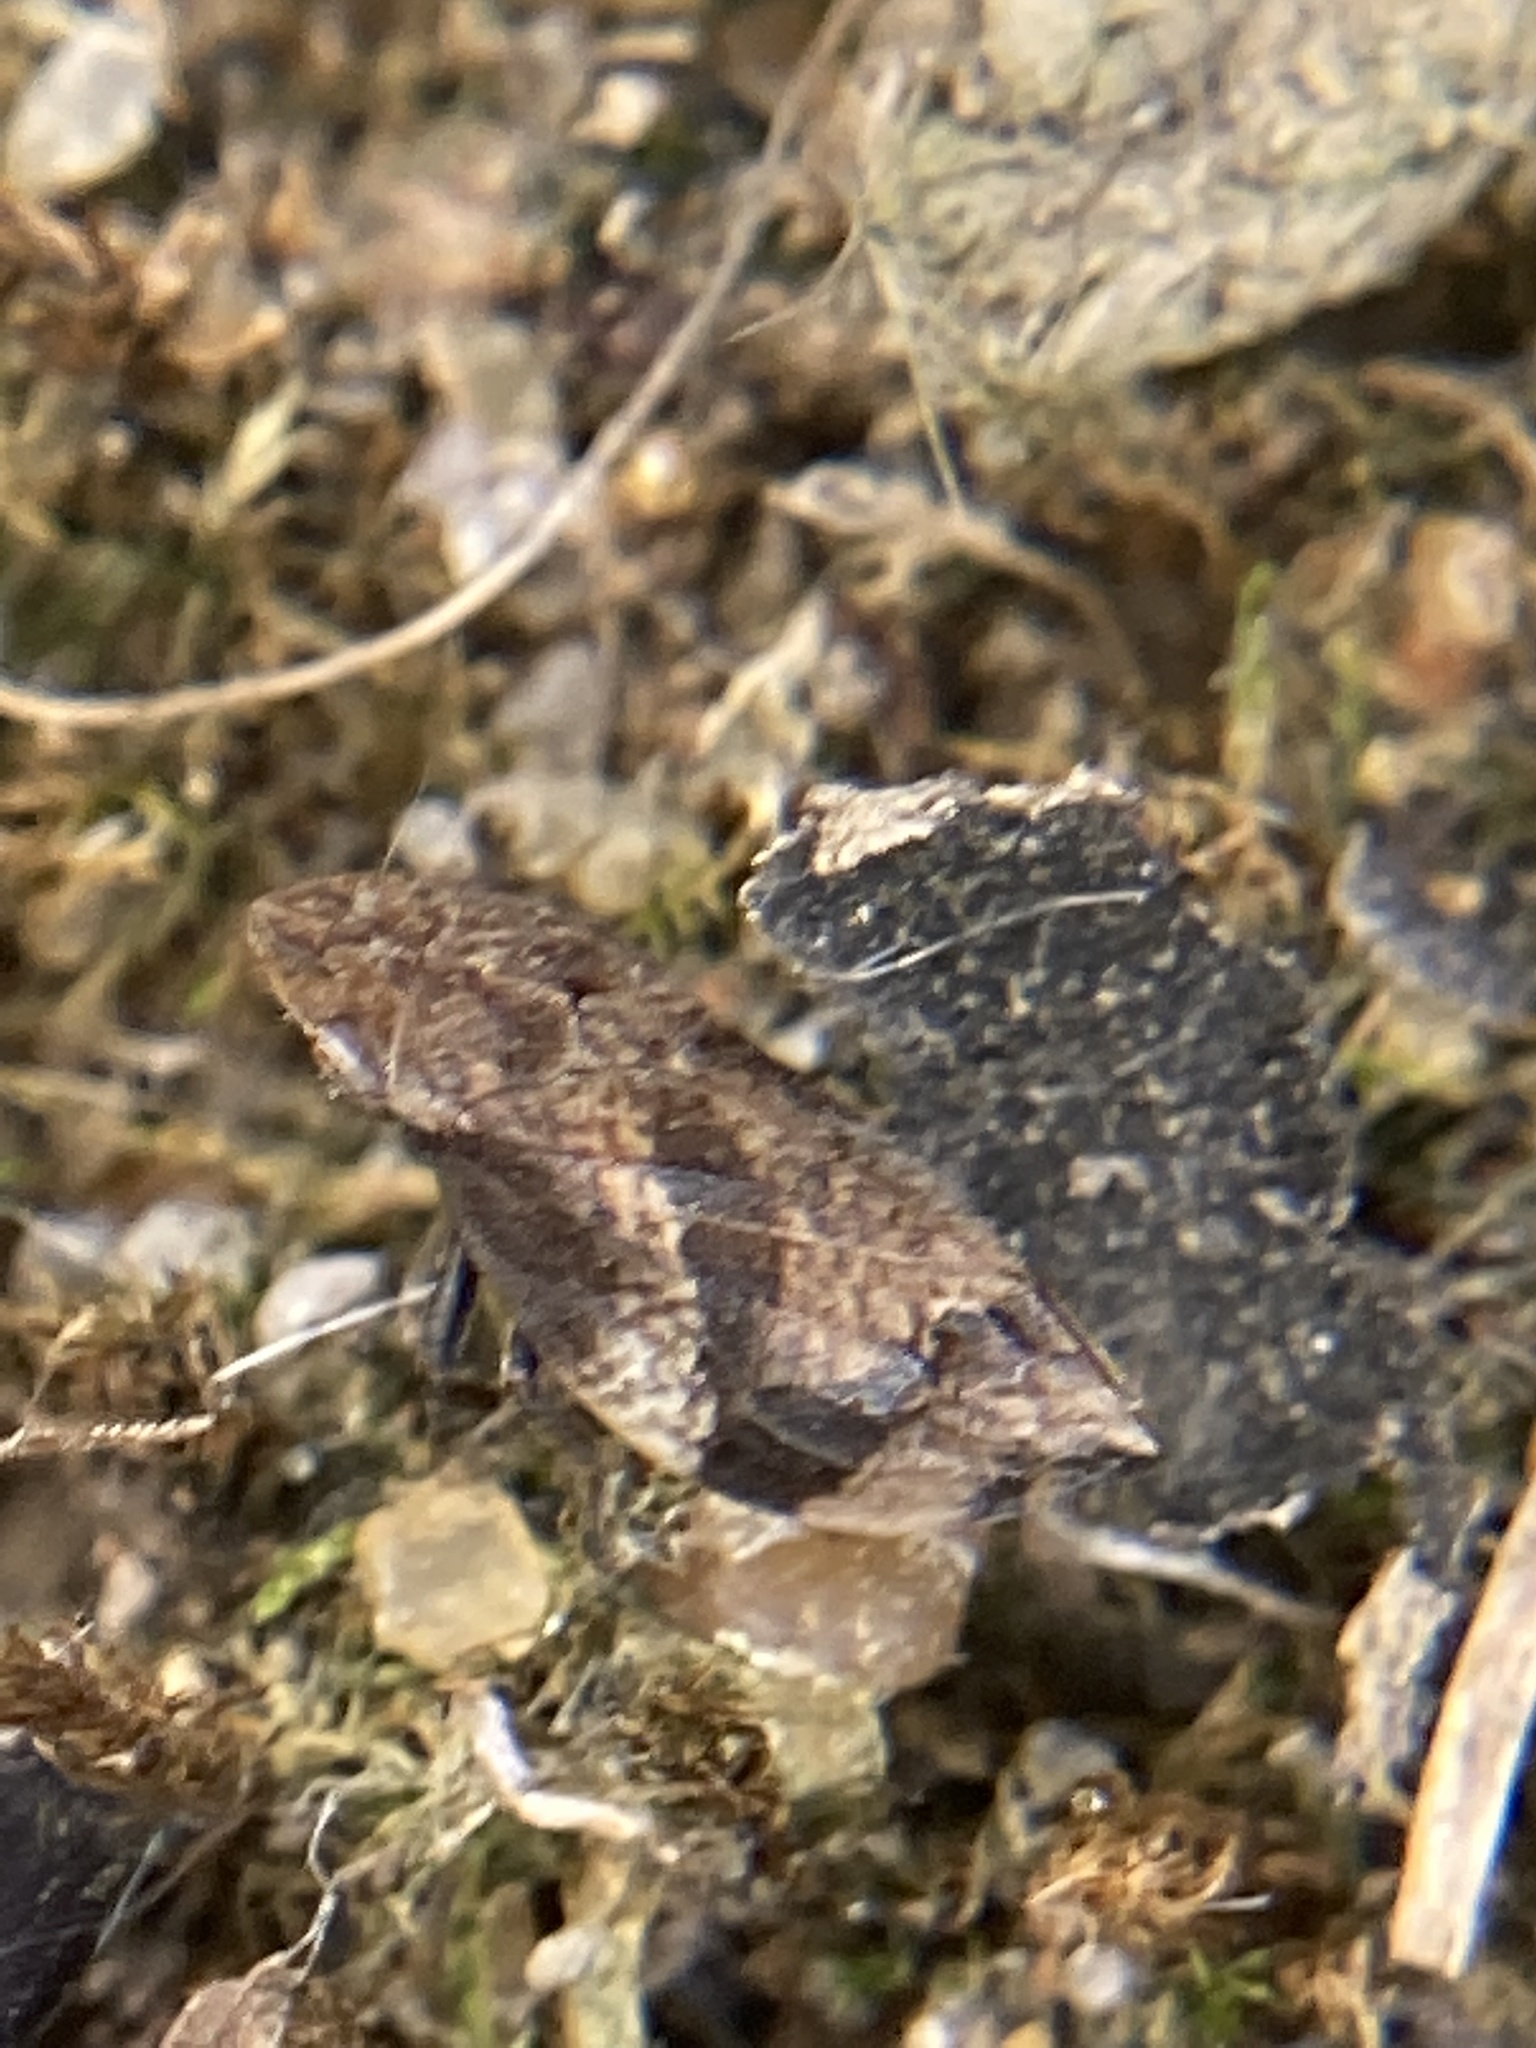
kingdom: Animalia
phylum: Arthropoda
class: Insecta
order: Hemiptera
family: Aphrophoridae
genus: Lepyronia
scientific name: Lepyronia quadrangularis
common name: Diamond-backed spittlebug
